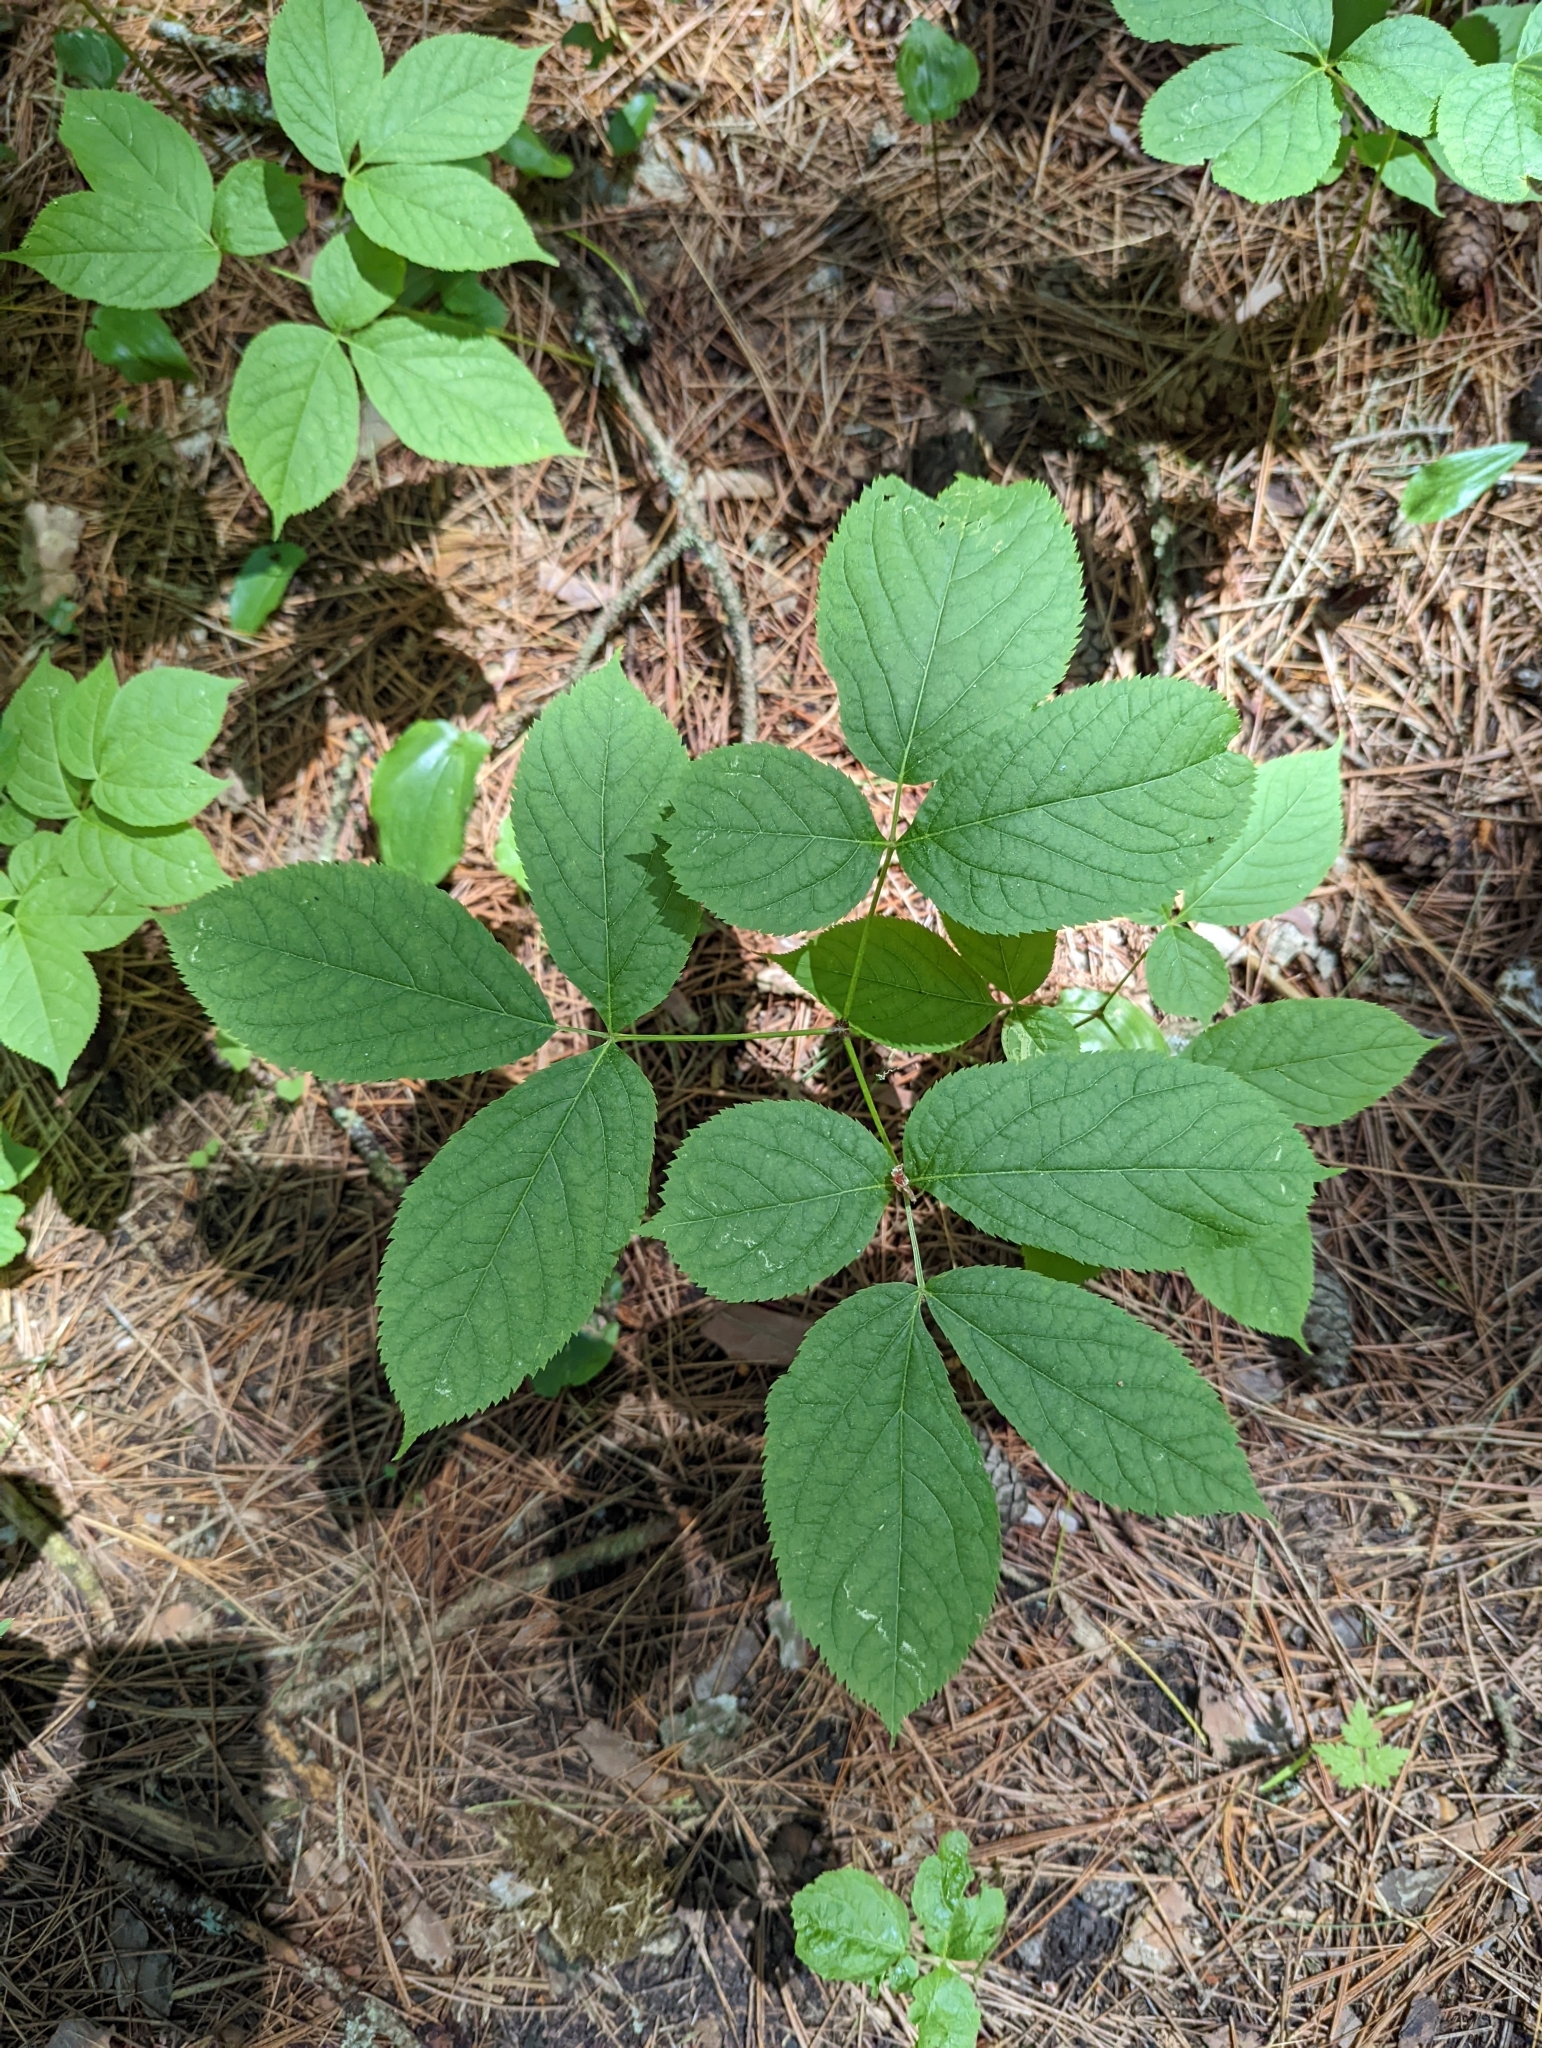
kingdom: Plantae
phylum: Tracheophyta
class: Magnoliopsida
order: Apiales
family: Araliaceae
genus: Aralia
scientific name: Aralia nudicaulis
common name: Wild sarsaparilla
